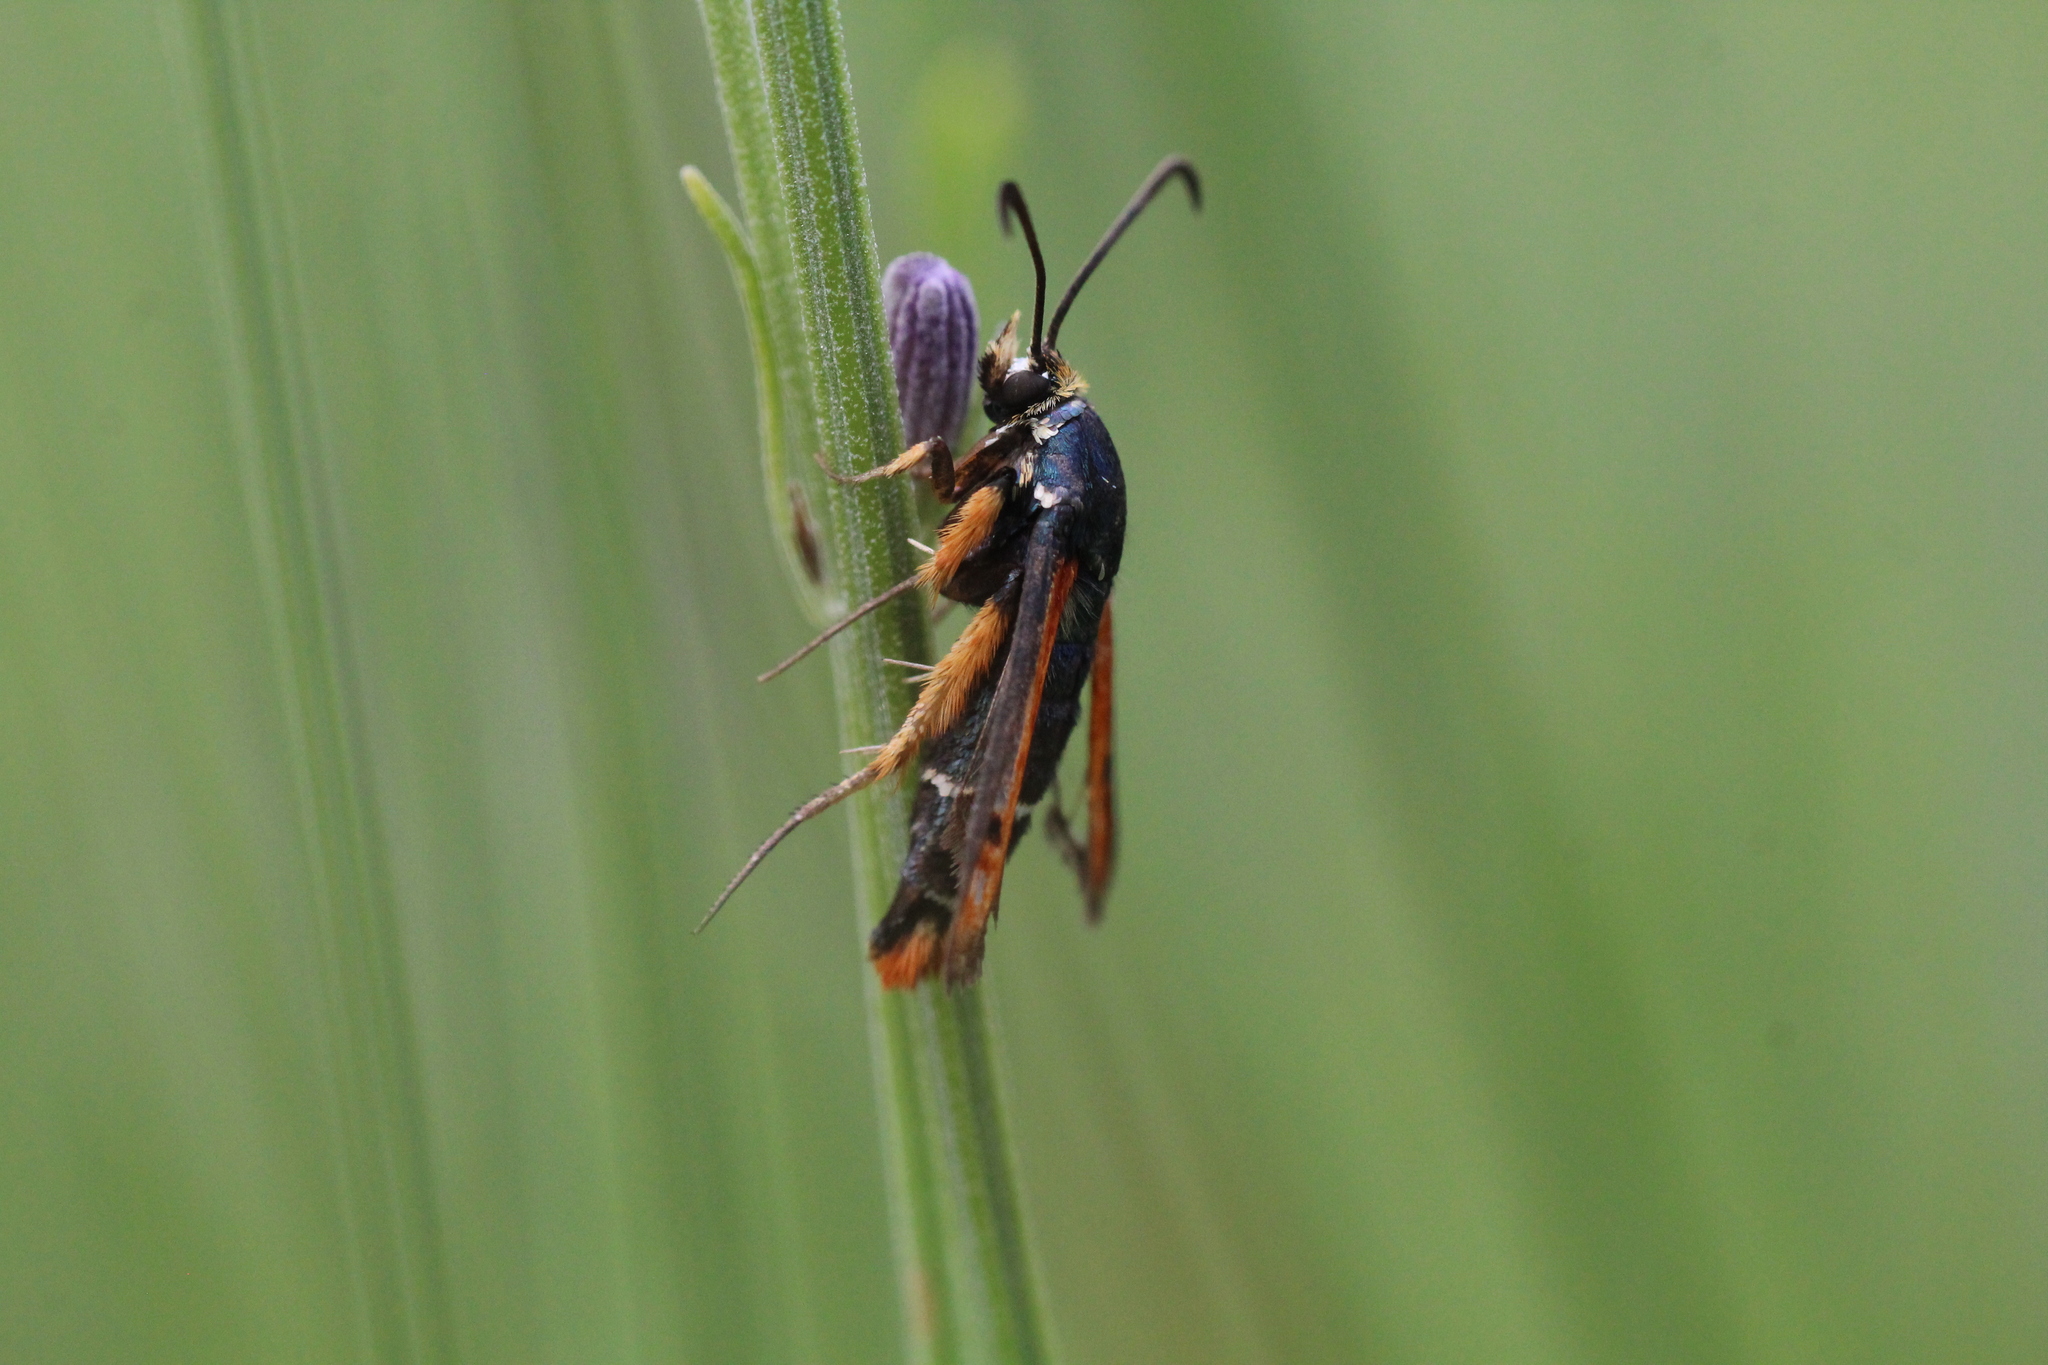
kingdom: Animalia
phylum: Arthropoda
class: Insecta
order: Lepidoptera
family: Sesiidae
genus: Pyropteron
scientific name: Pyropteron chrysidiforme
